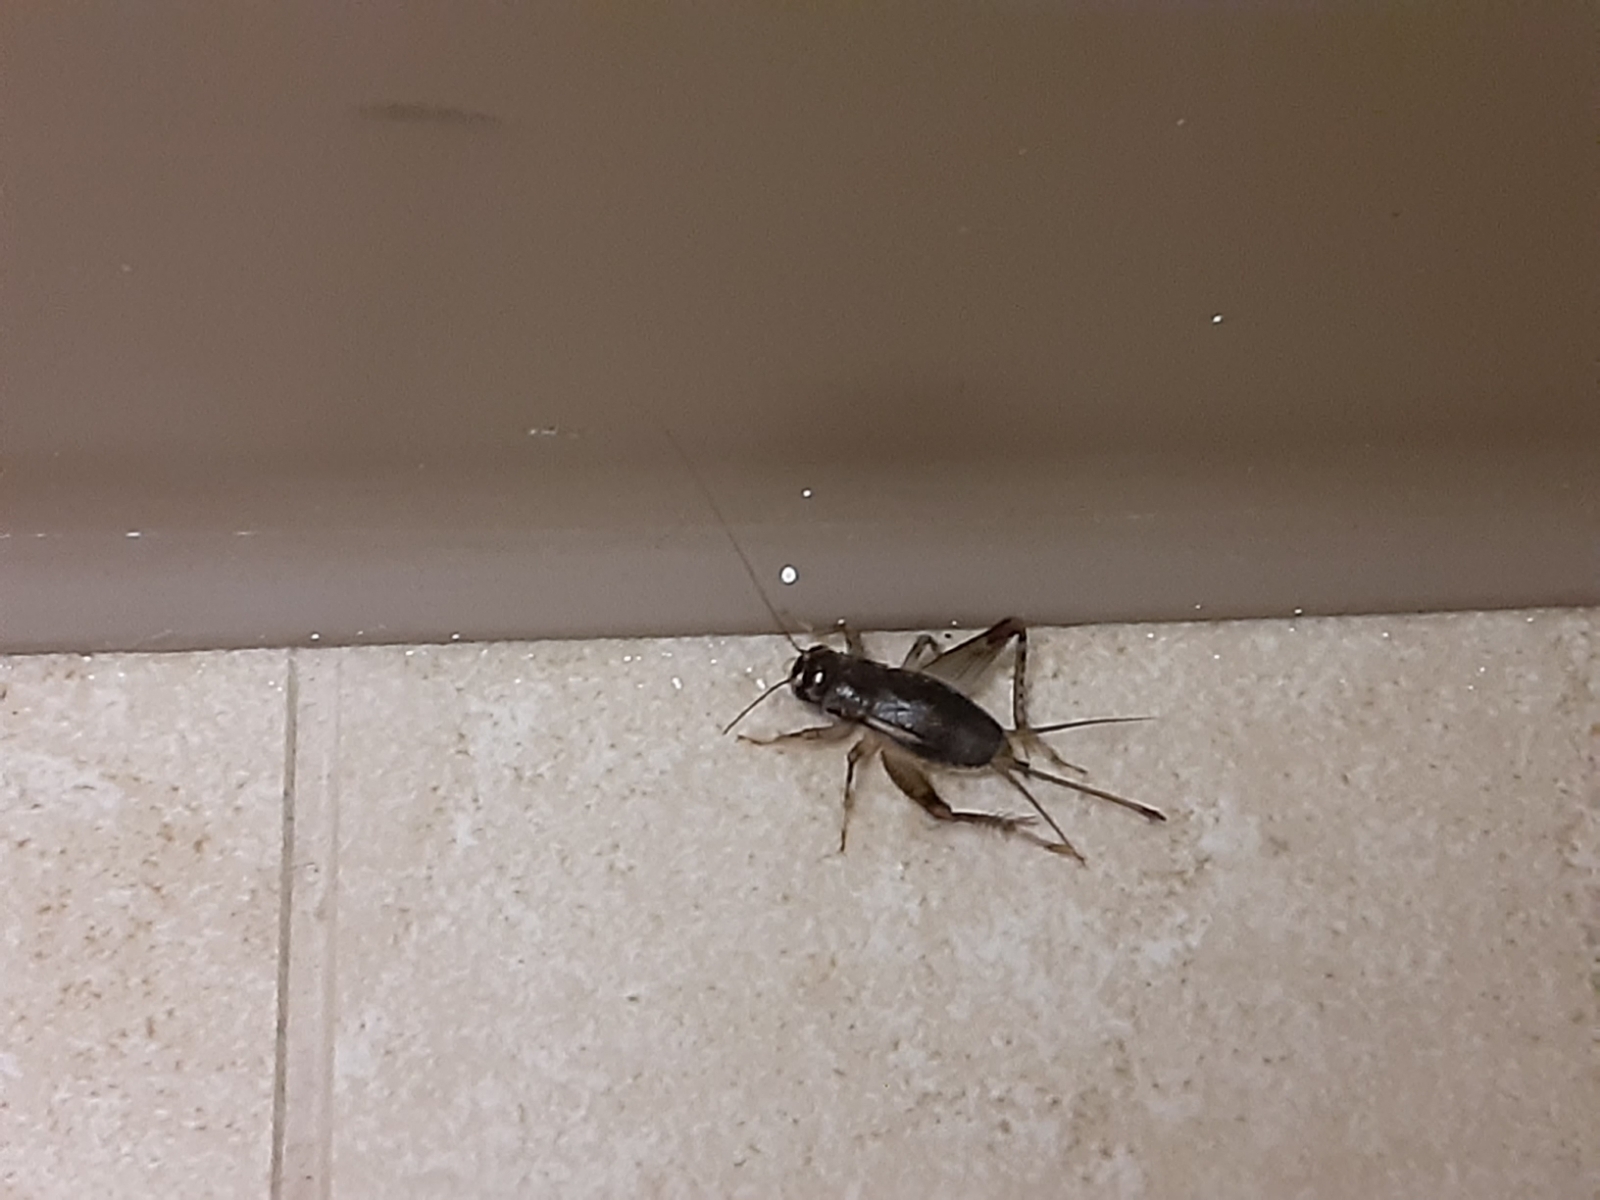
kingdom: Animalia
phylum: Arthropoda
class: Insecta
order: Orthoptera
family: Gryllidae
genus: Velarifictorus
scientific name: Velarifictorus micado
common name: Japanese burrowing cricket
